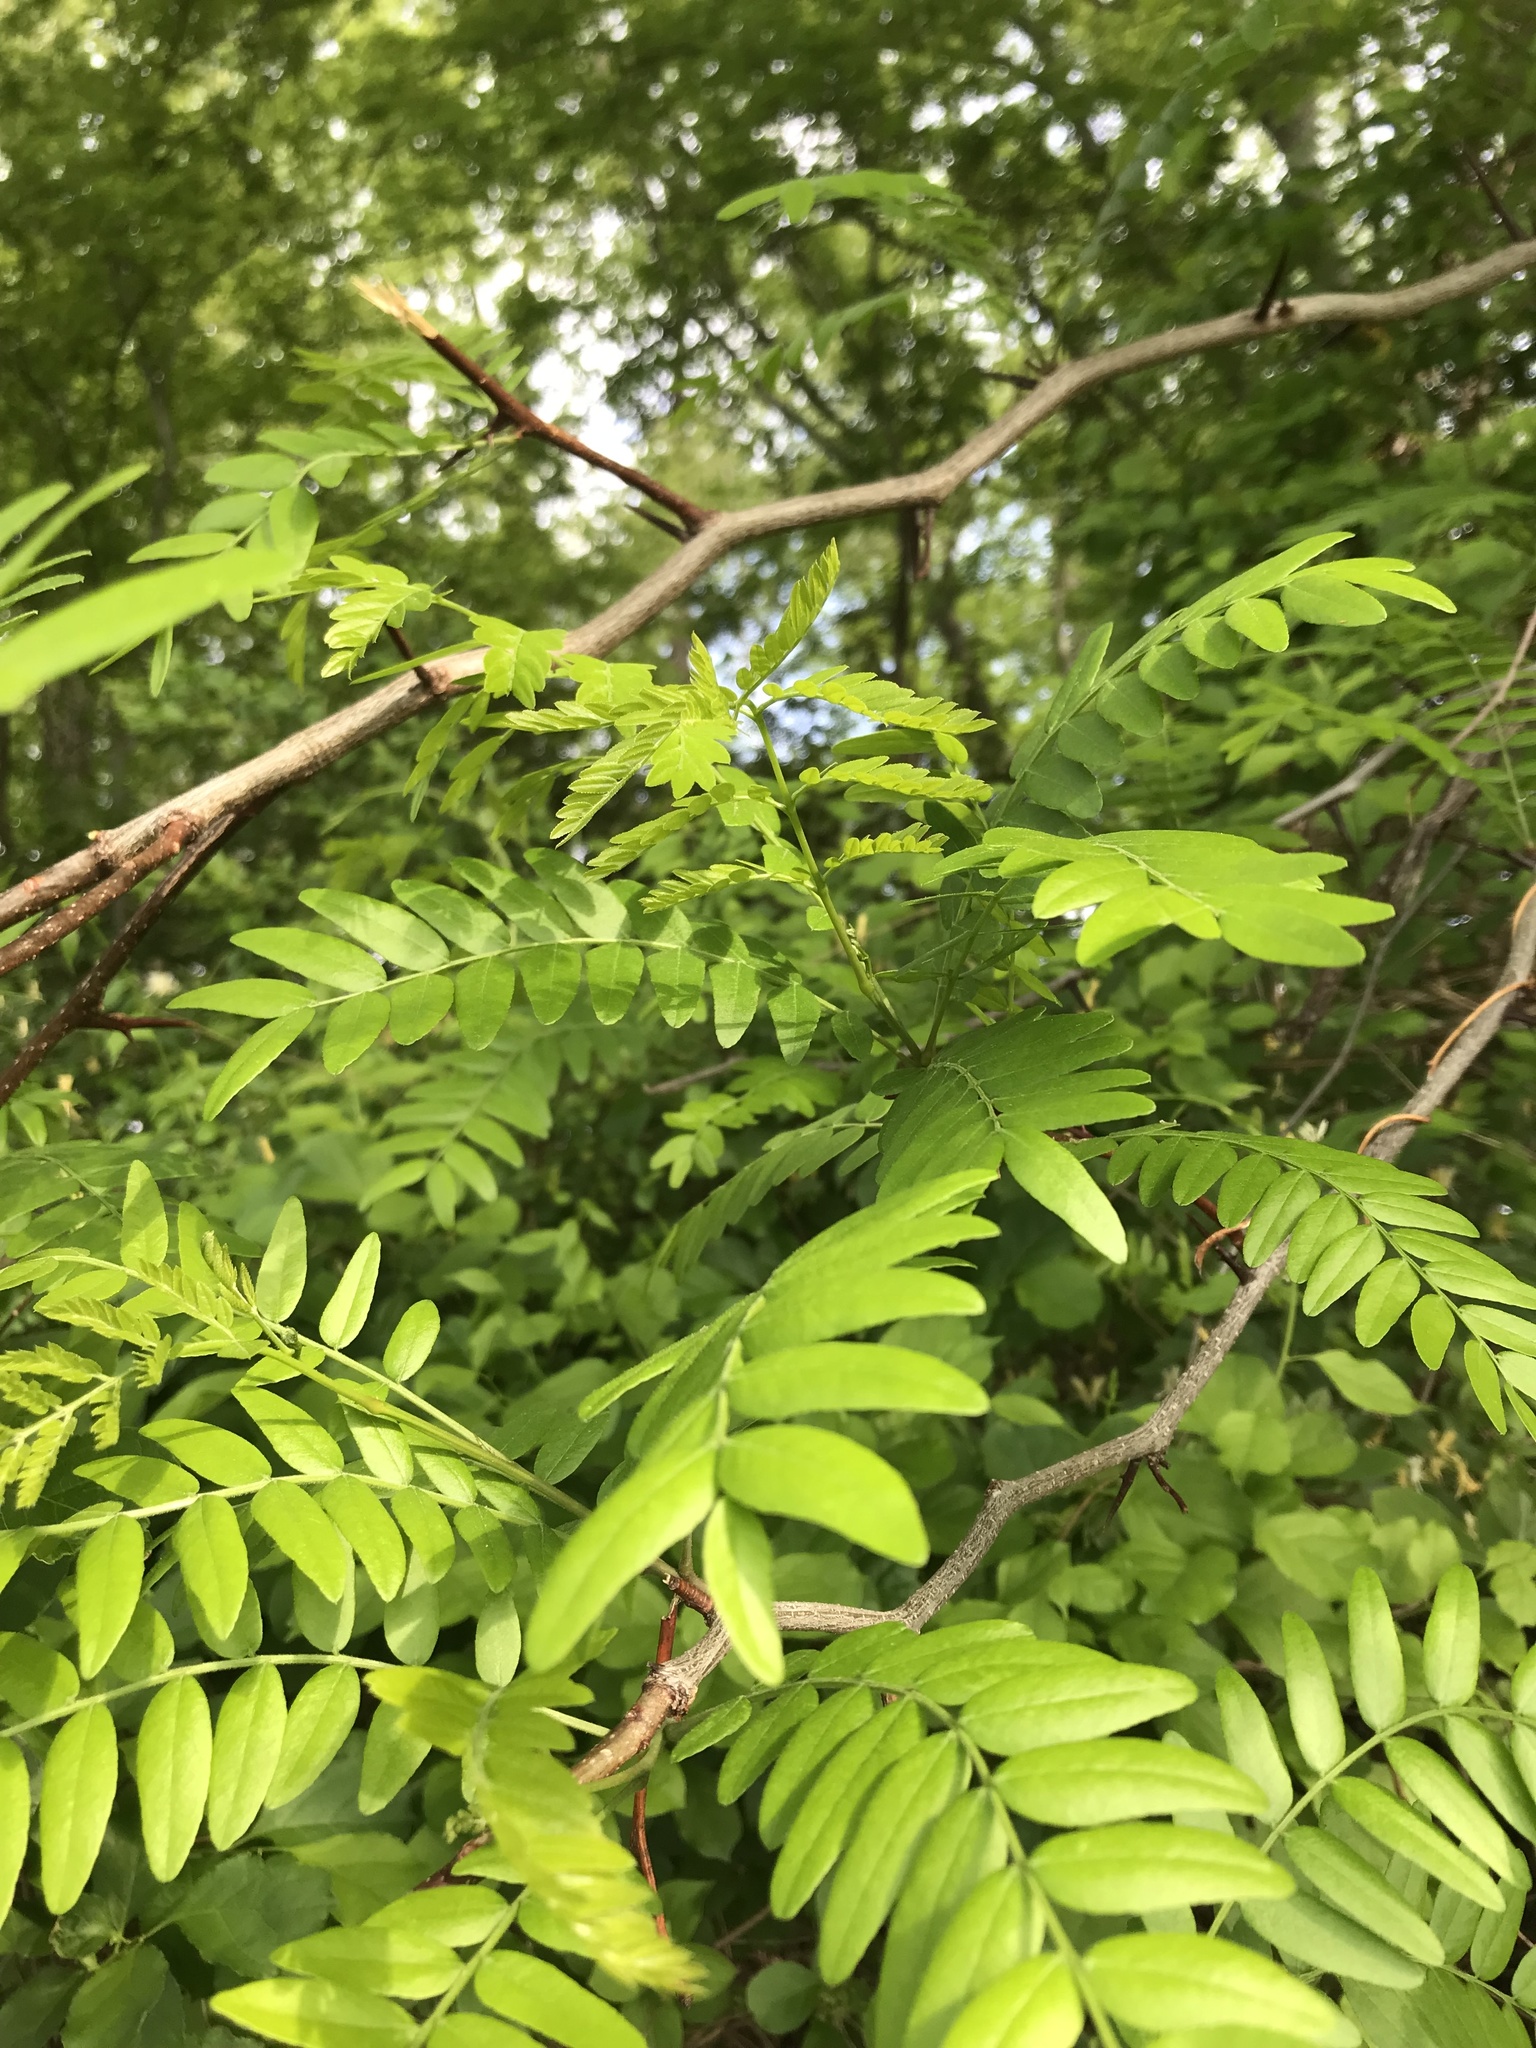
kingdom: Plantae
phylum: Tracheophyta
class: Magnoliopsida
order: Fabales
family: Fabaceae
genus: Gleditsia
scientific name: Gleditsia triacanthos
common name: Common honeylocust
